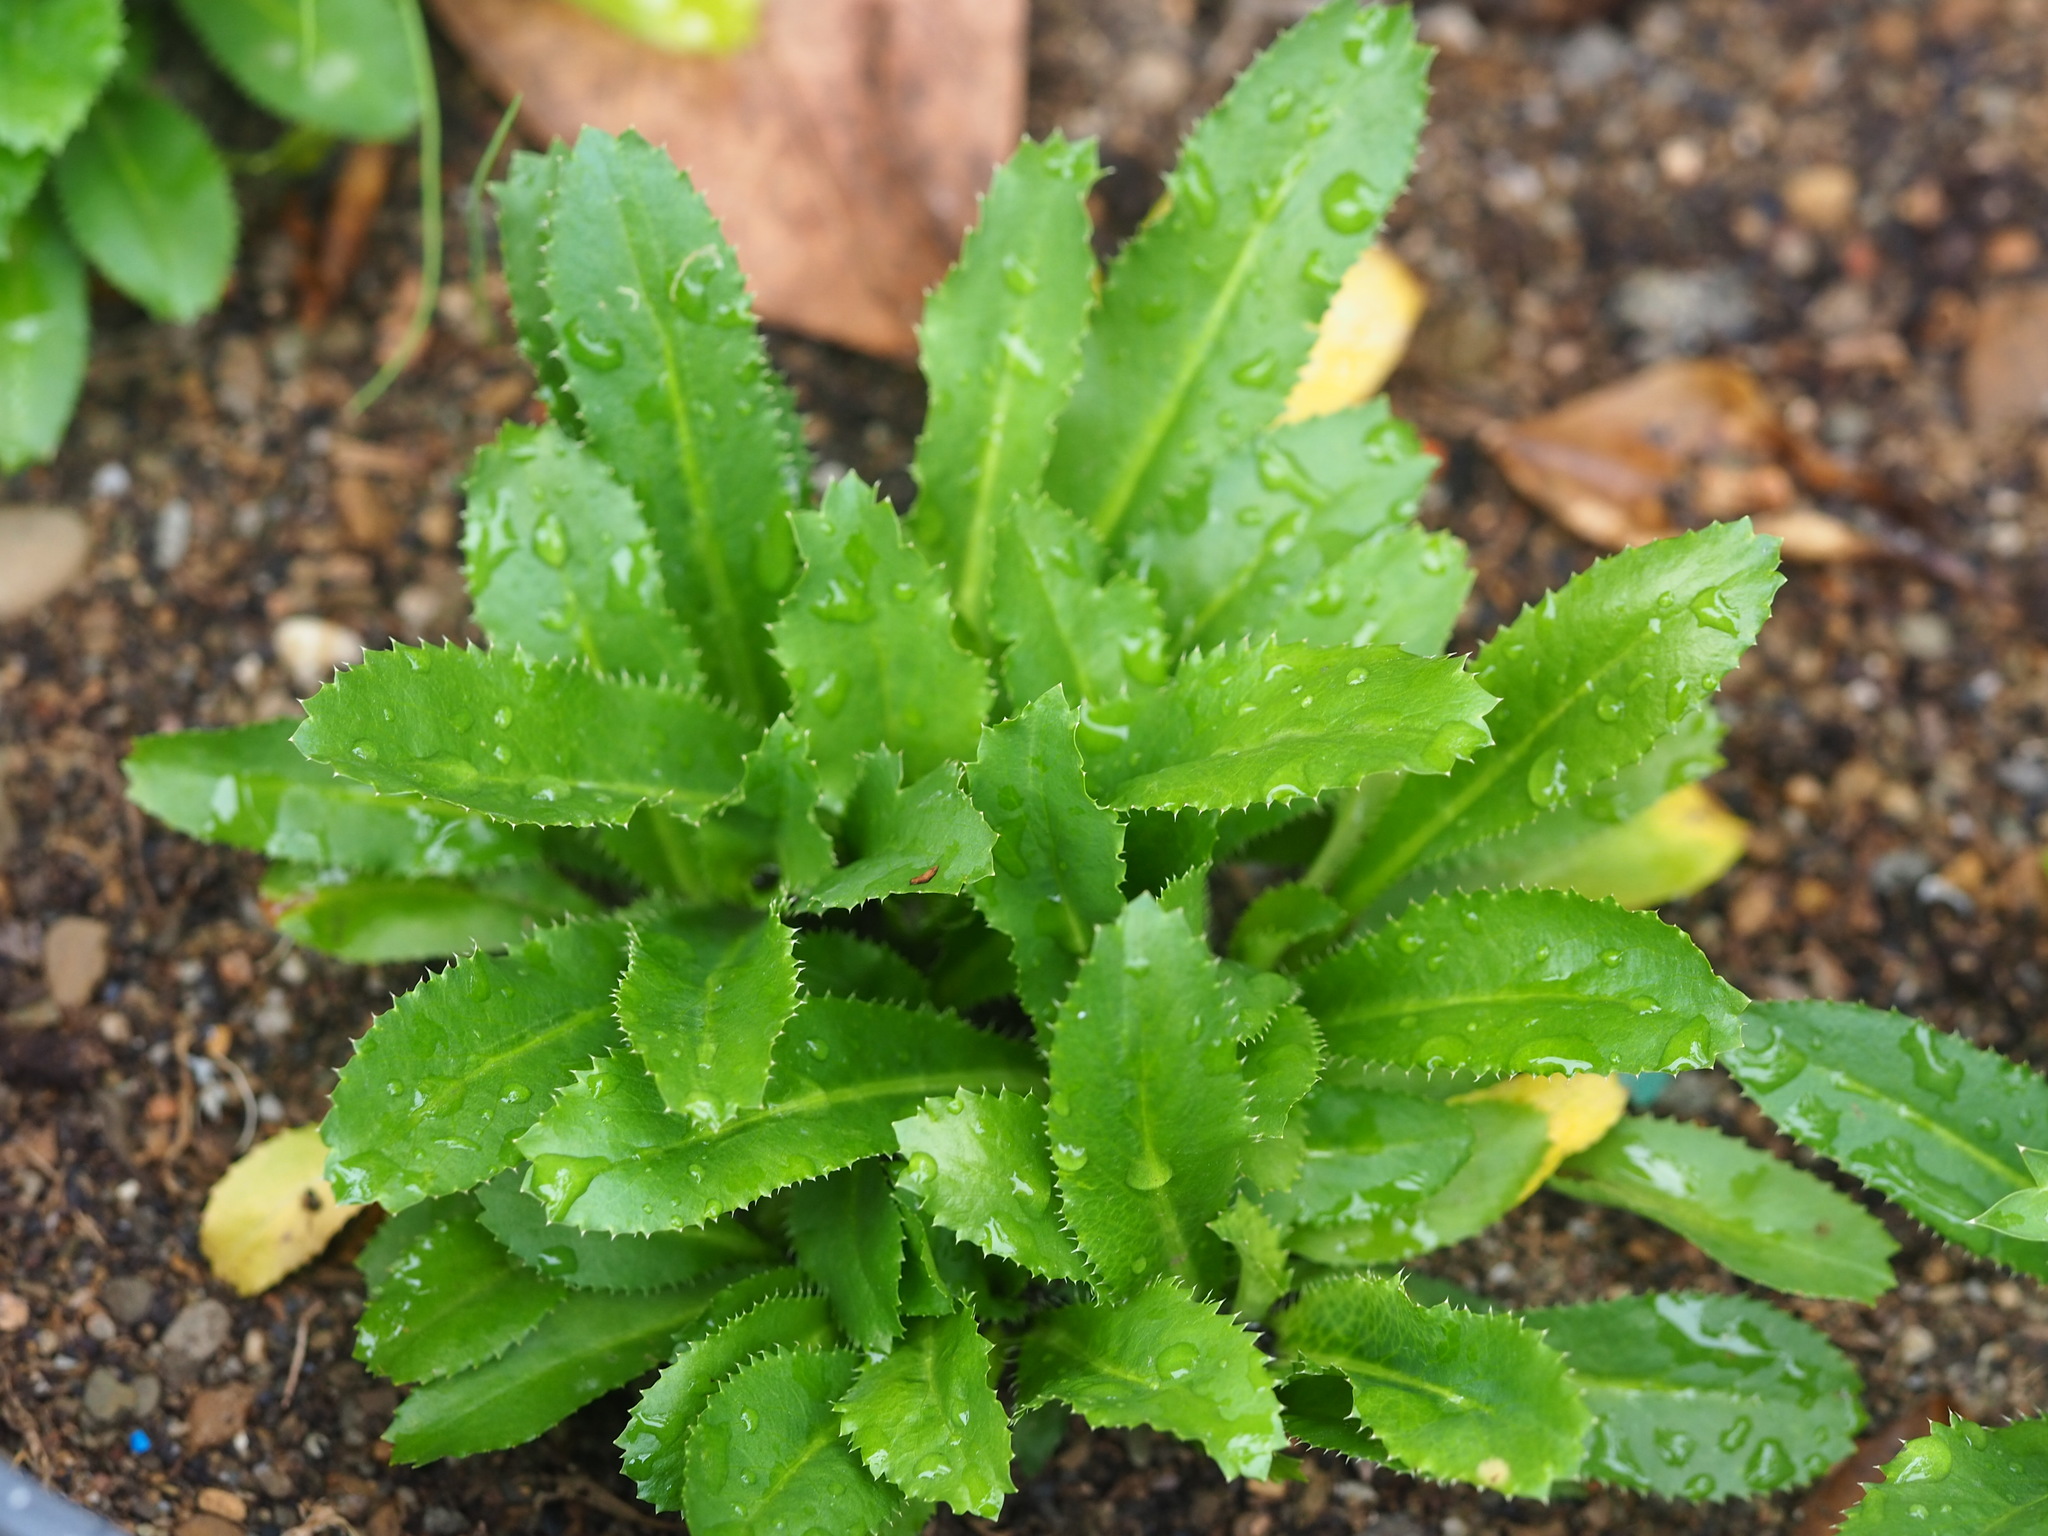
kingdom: Plantae
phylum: Tracheophyta
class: Magnoliopsida
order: Apiales
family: Apiaceae
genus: Eryngium
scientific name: Eryngium foetidum
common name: Fitweed
